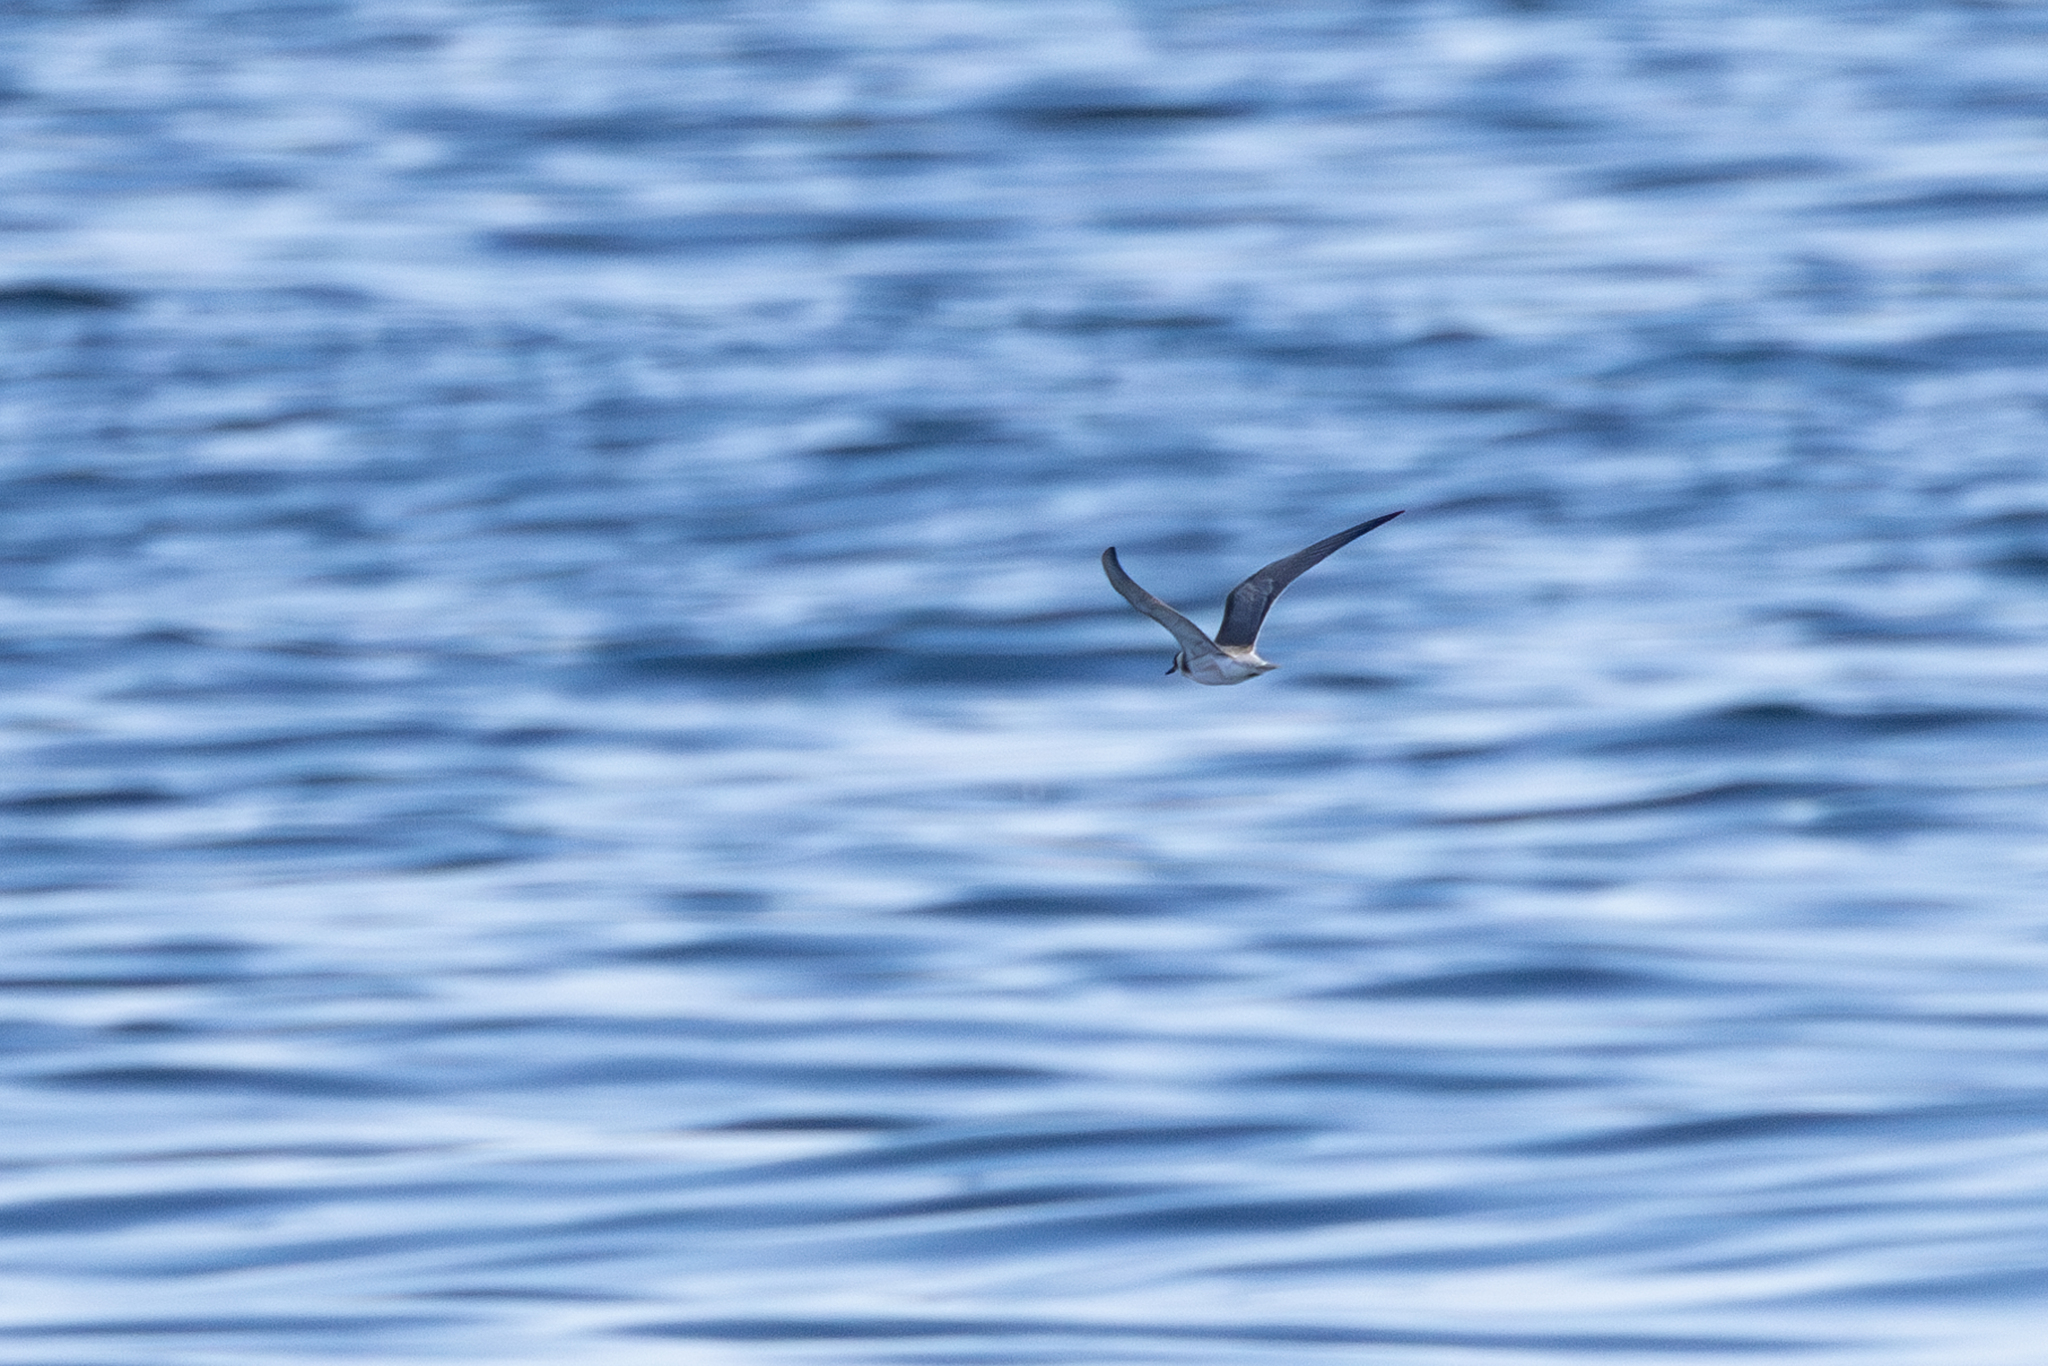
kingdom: Animalia
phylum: Chordata
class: Aves
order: Charadriiformes
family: Laridae
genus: Chlidonias
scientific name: Chlidonias niger
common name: Black tern
